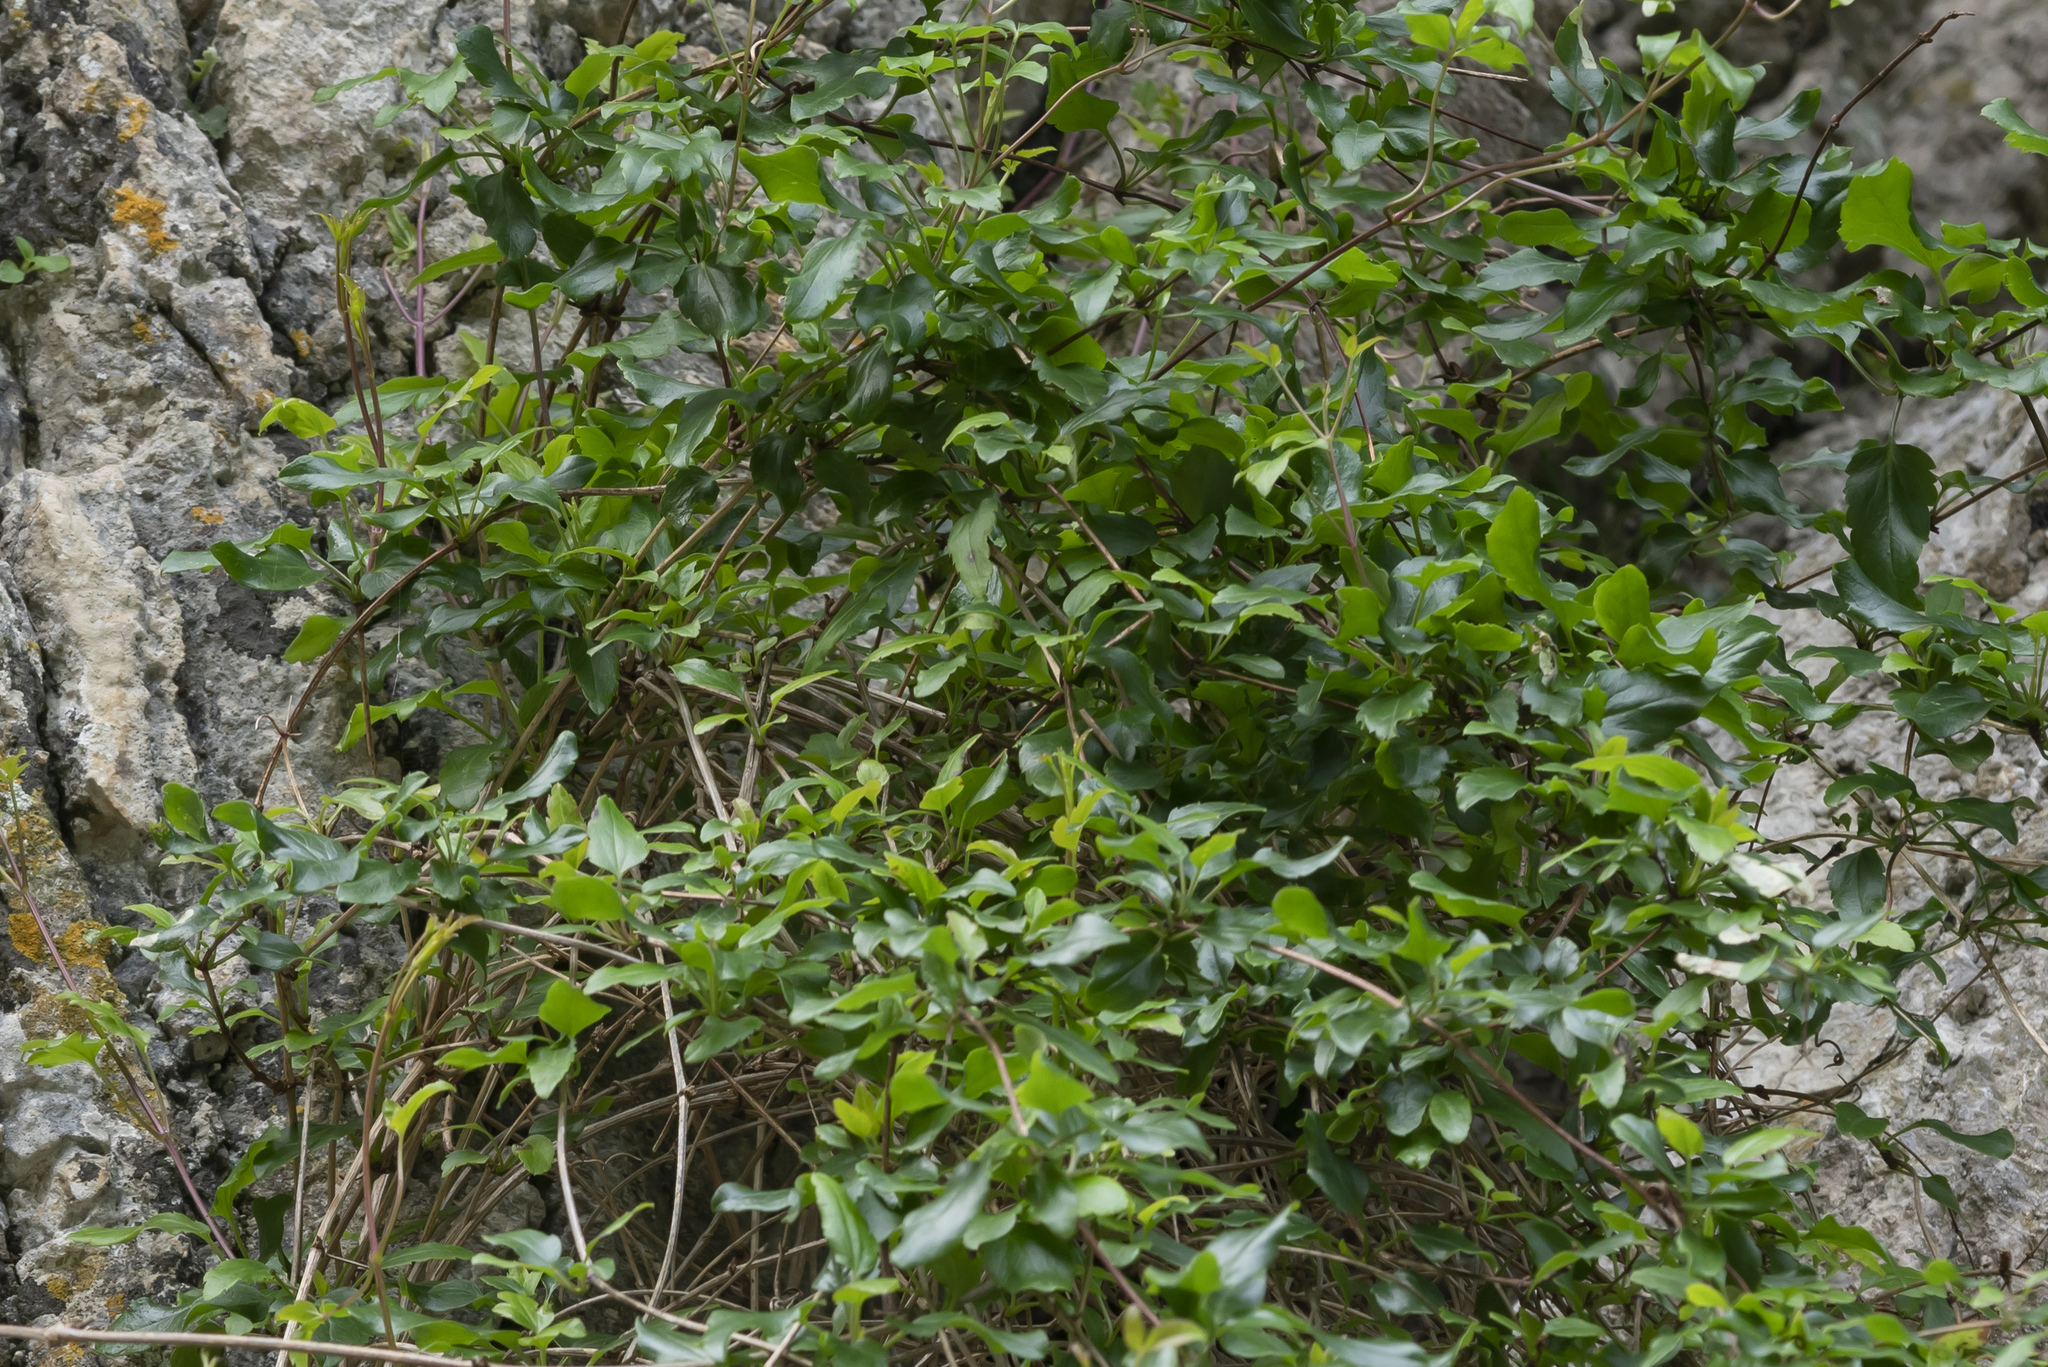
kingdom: Plantae
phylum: Tracheophyta
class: Magnoliopsida
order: Ranunculales
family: Ranunculaceae
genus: Clematis
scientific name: Clematis cirrhosa
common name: Early virgin's-bower
